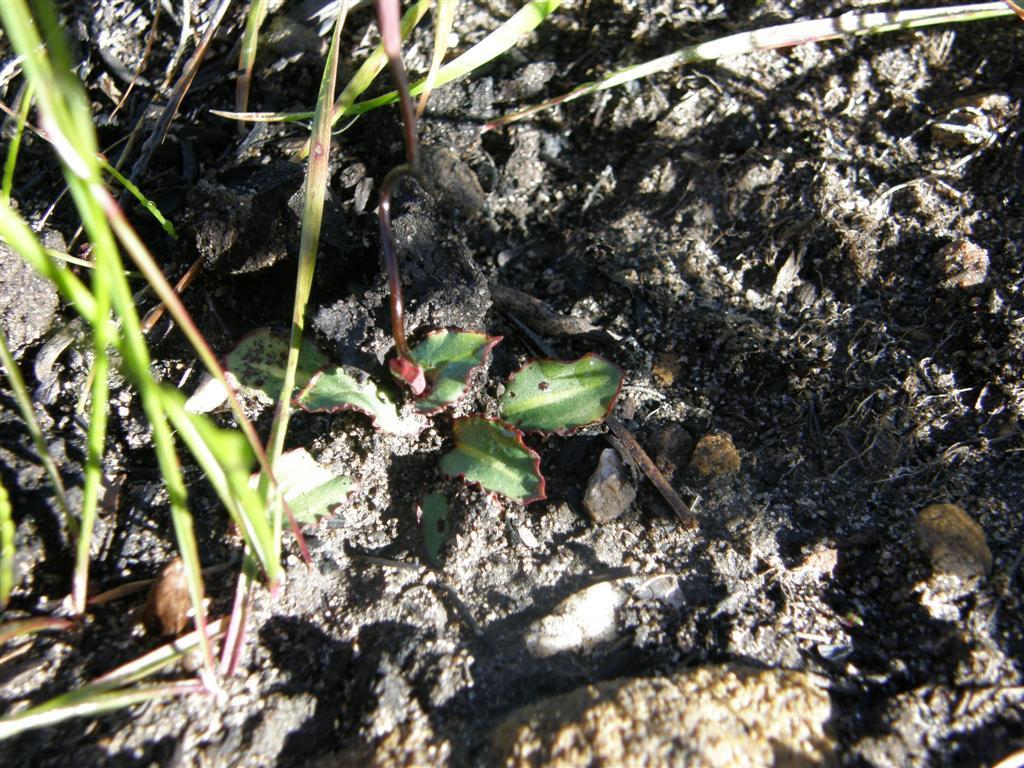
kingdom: Plantae
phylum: Tracheophyta
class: Liliopsida
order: Asparagales
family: Orchidaceae
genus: Disa
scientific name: Disa bifida
